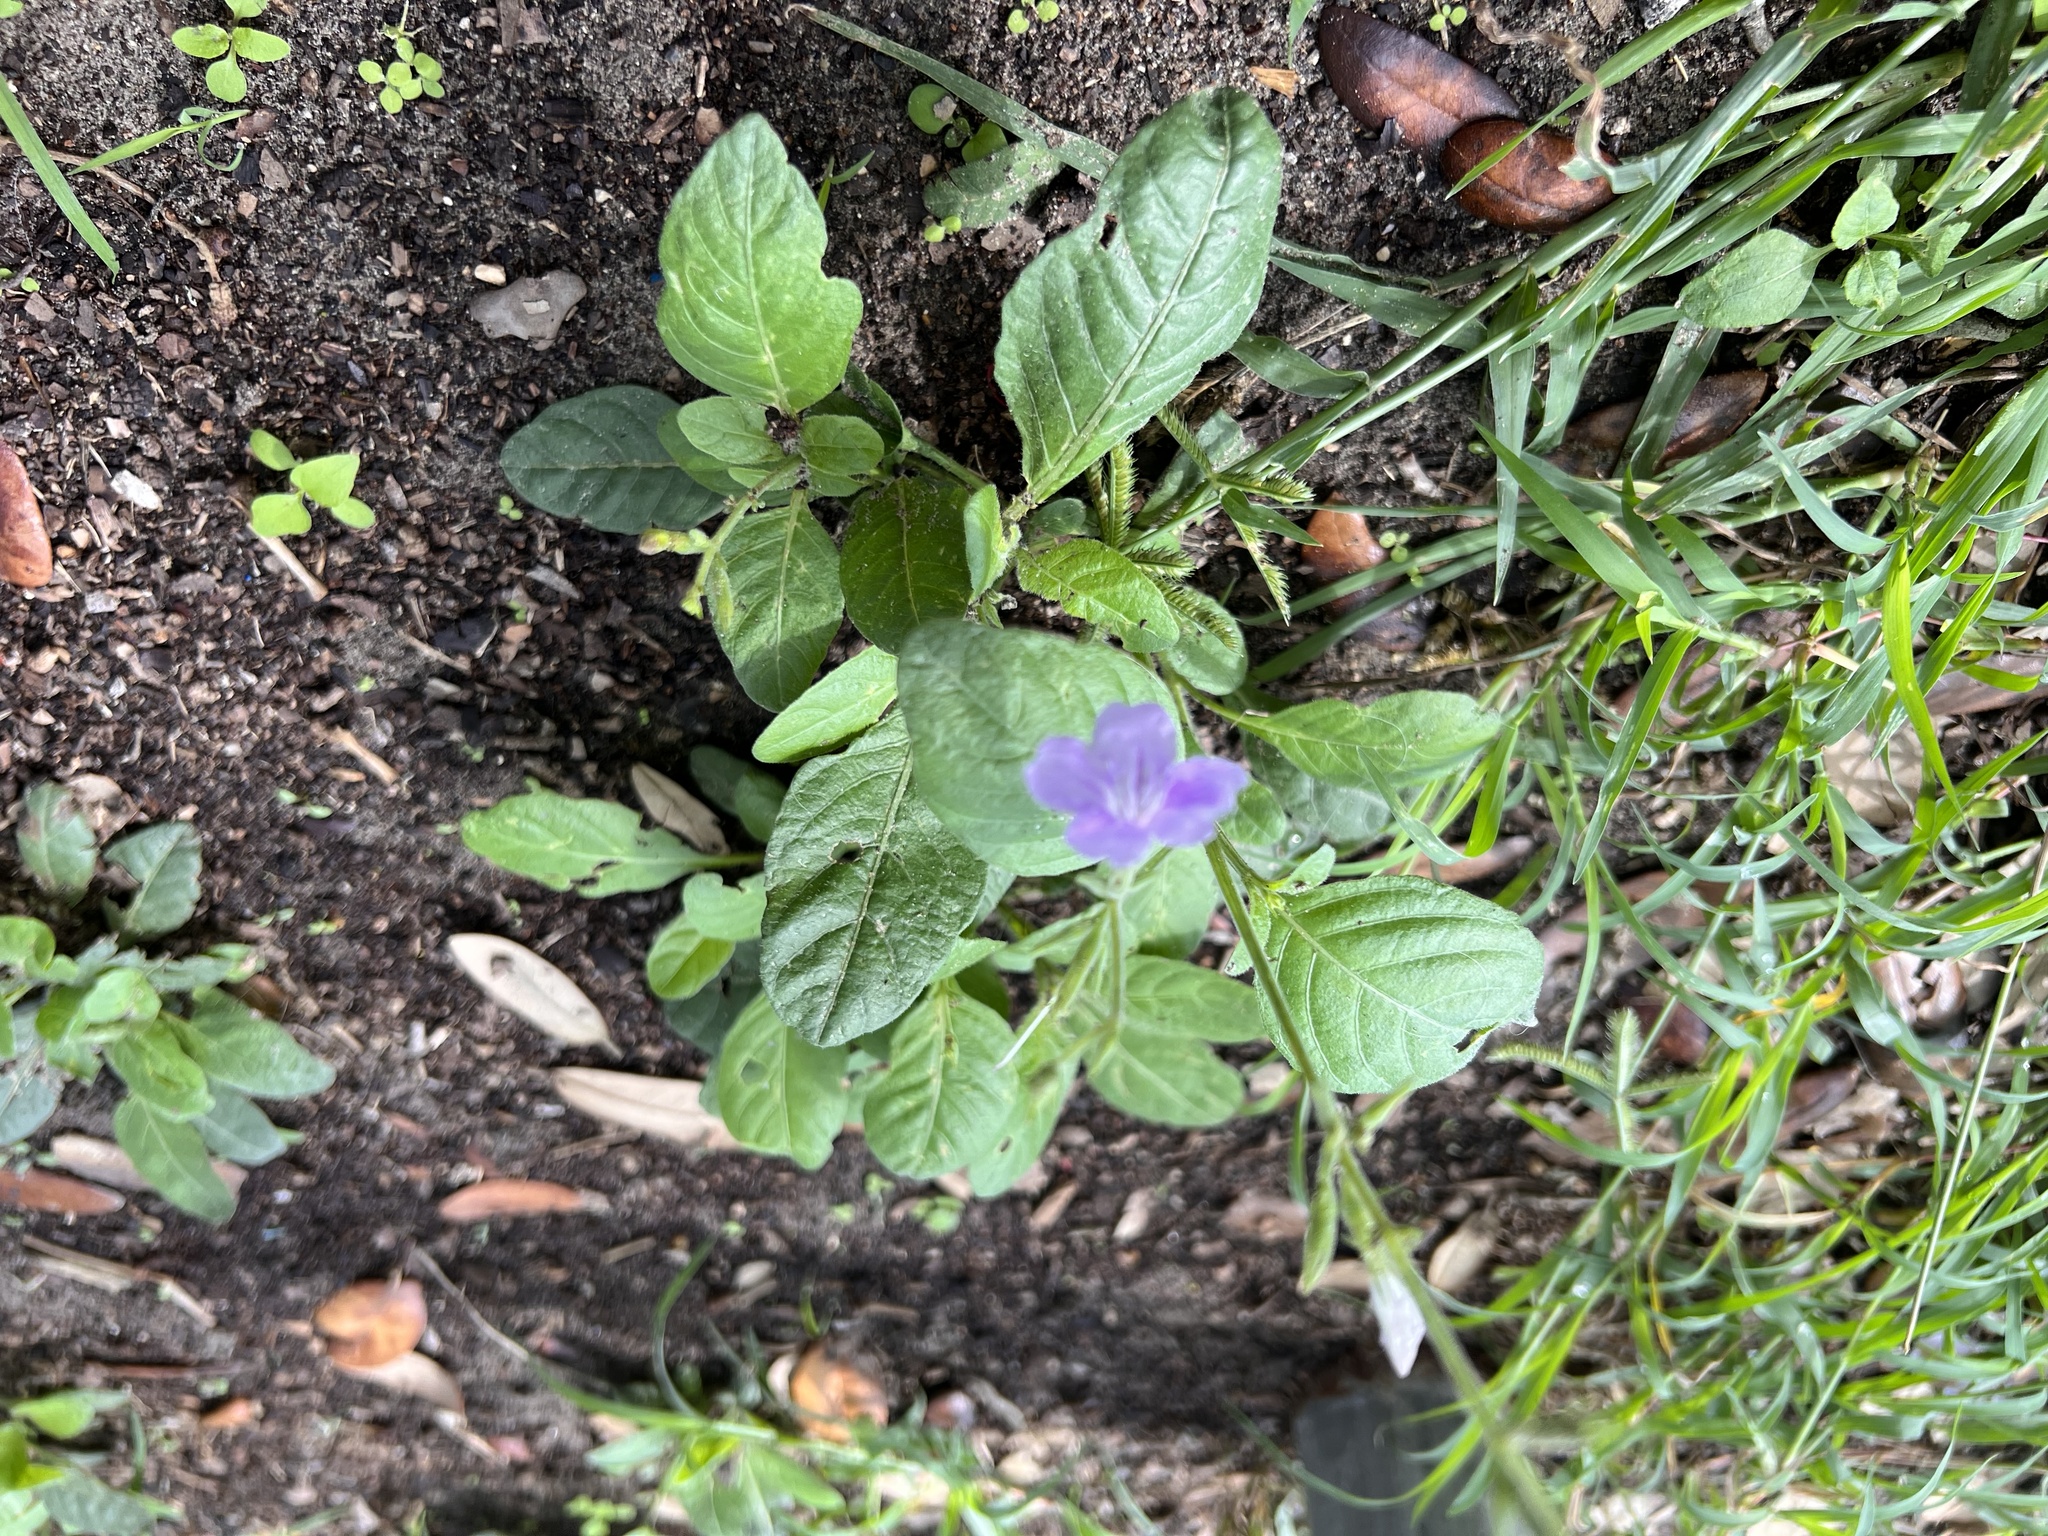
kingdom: Plantae
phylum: Tracheophyta
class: Magnoliopsida
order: Lamiales
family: Acanthaceae
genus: Ruellia
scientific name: Ruellia ciliatiflora
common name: Hairyflower wild petunia
